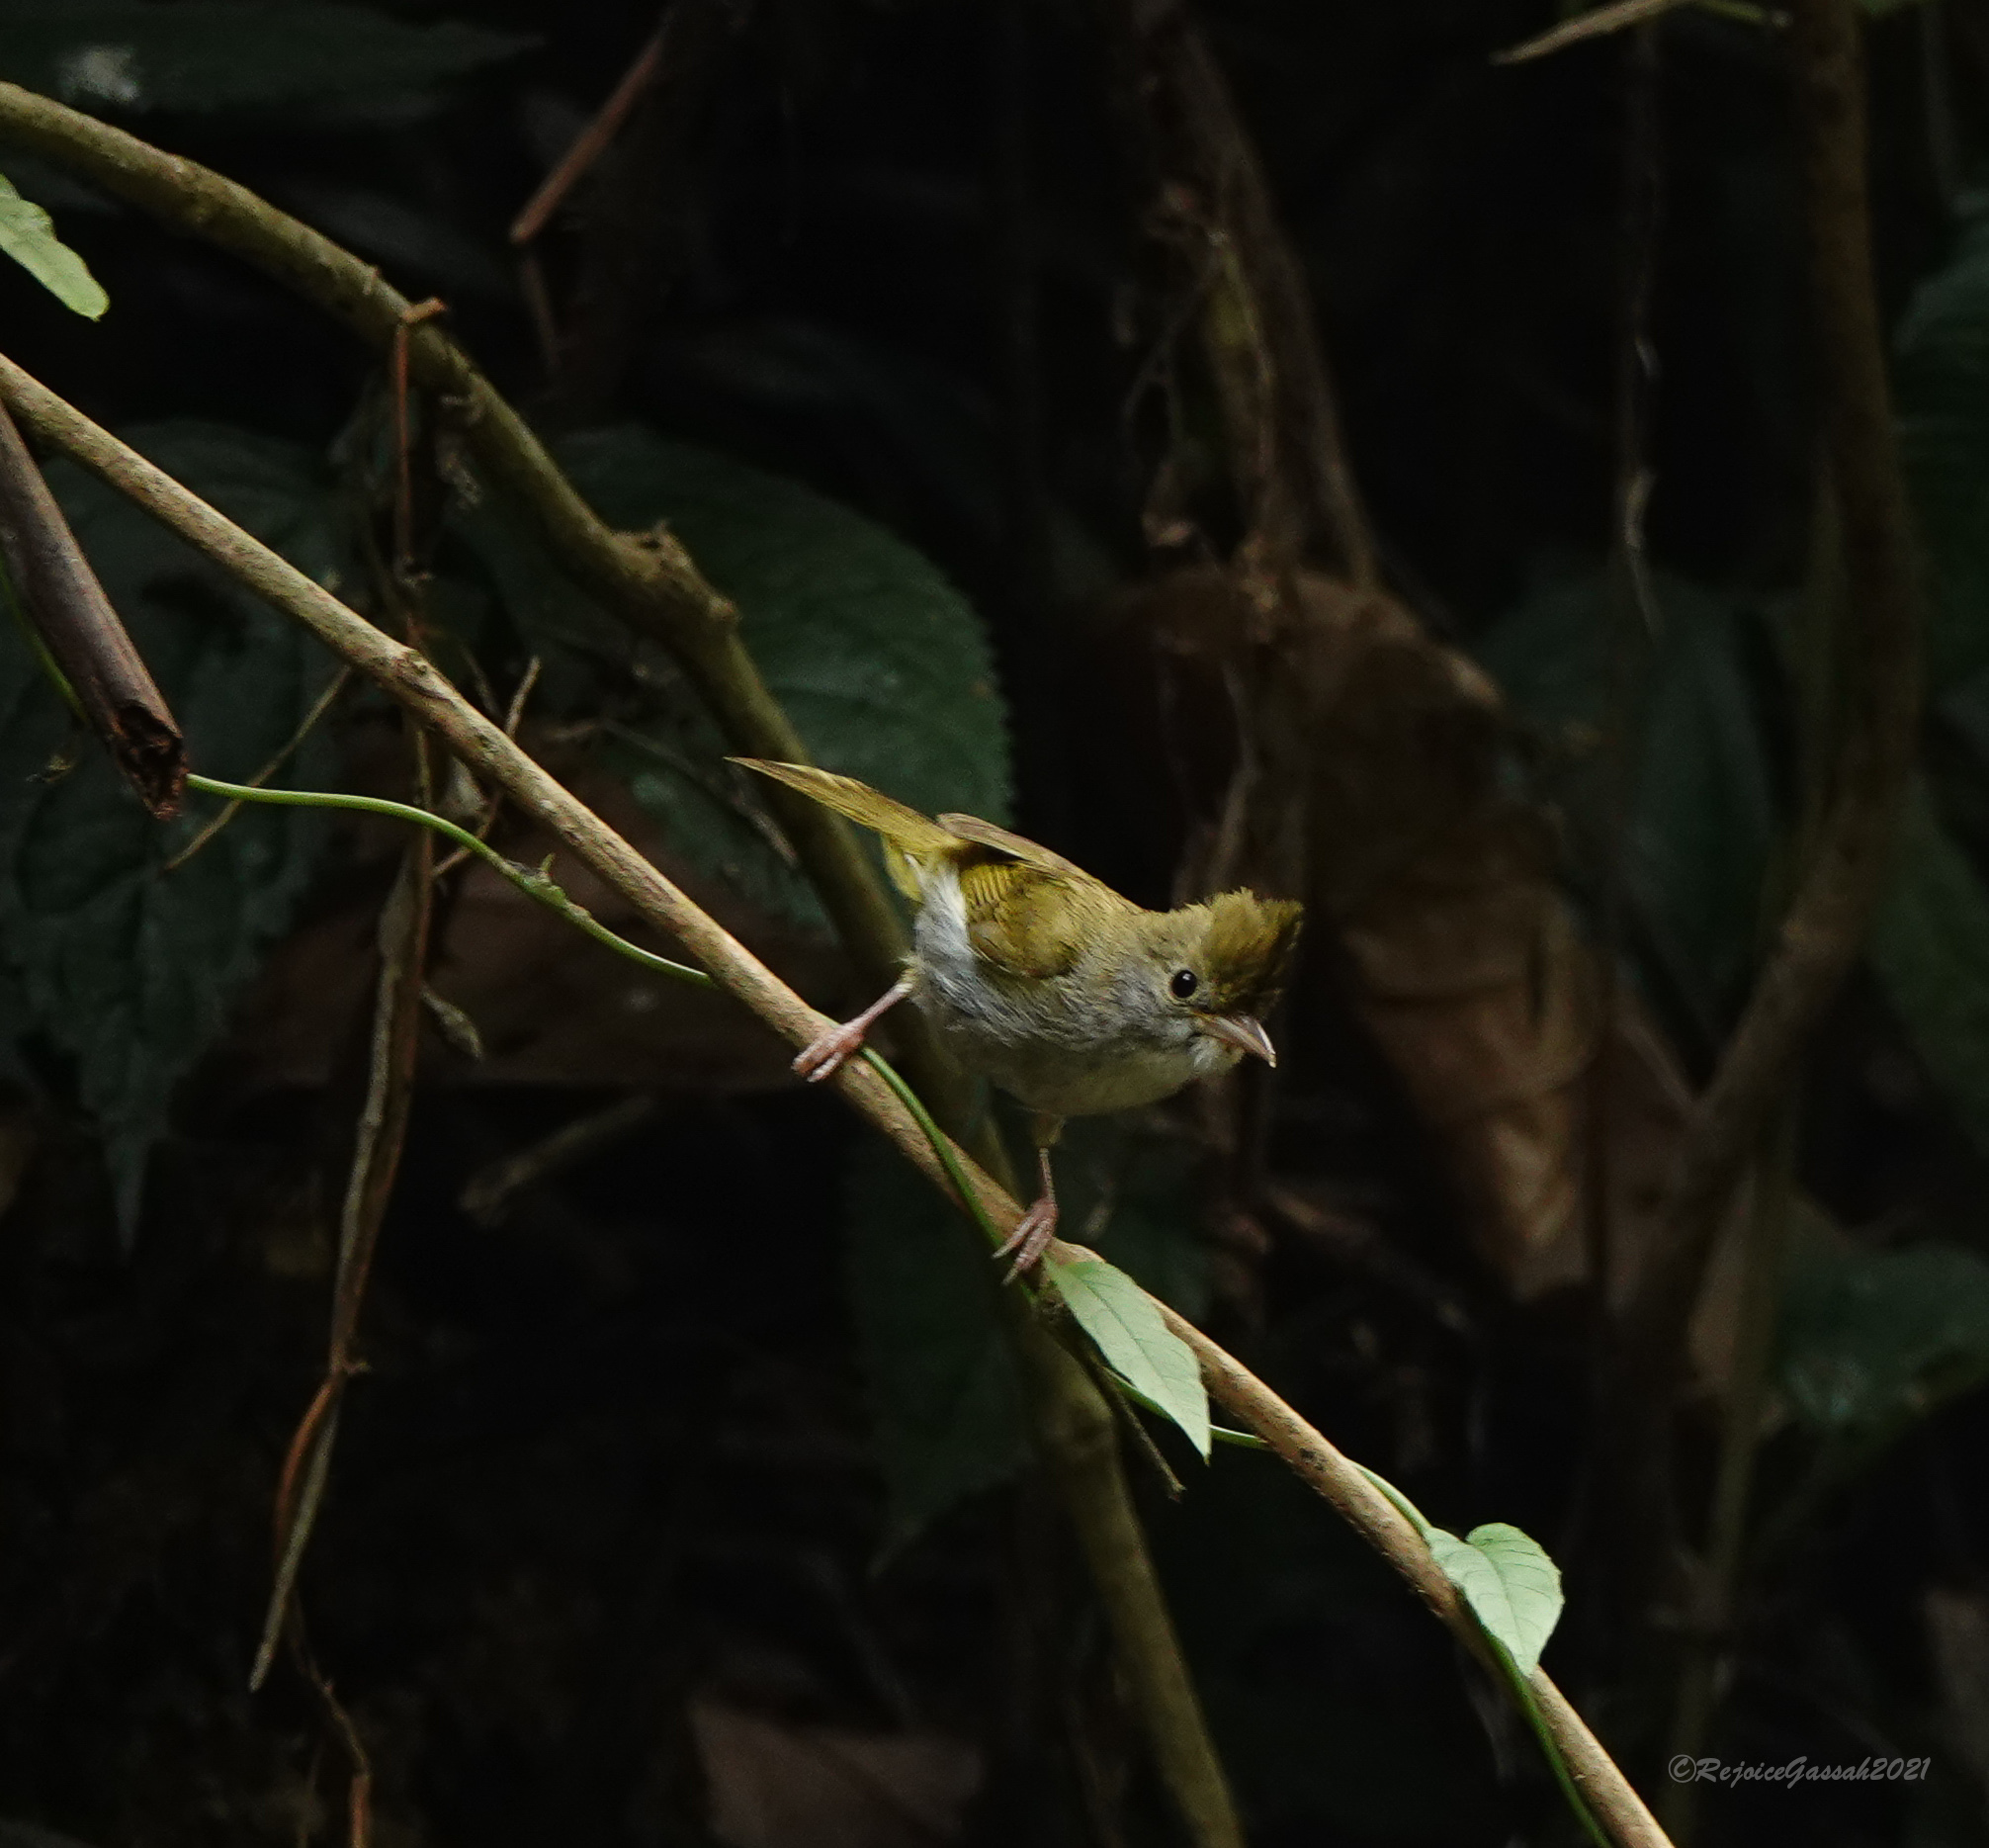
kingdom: Animalia
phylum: Chordata
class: Aves
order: Passeriformes
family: Vireonidae
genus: Erpornis
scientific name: Erpornis zantholeuca
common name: White-bellied erpornis
